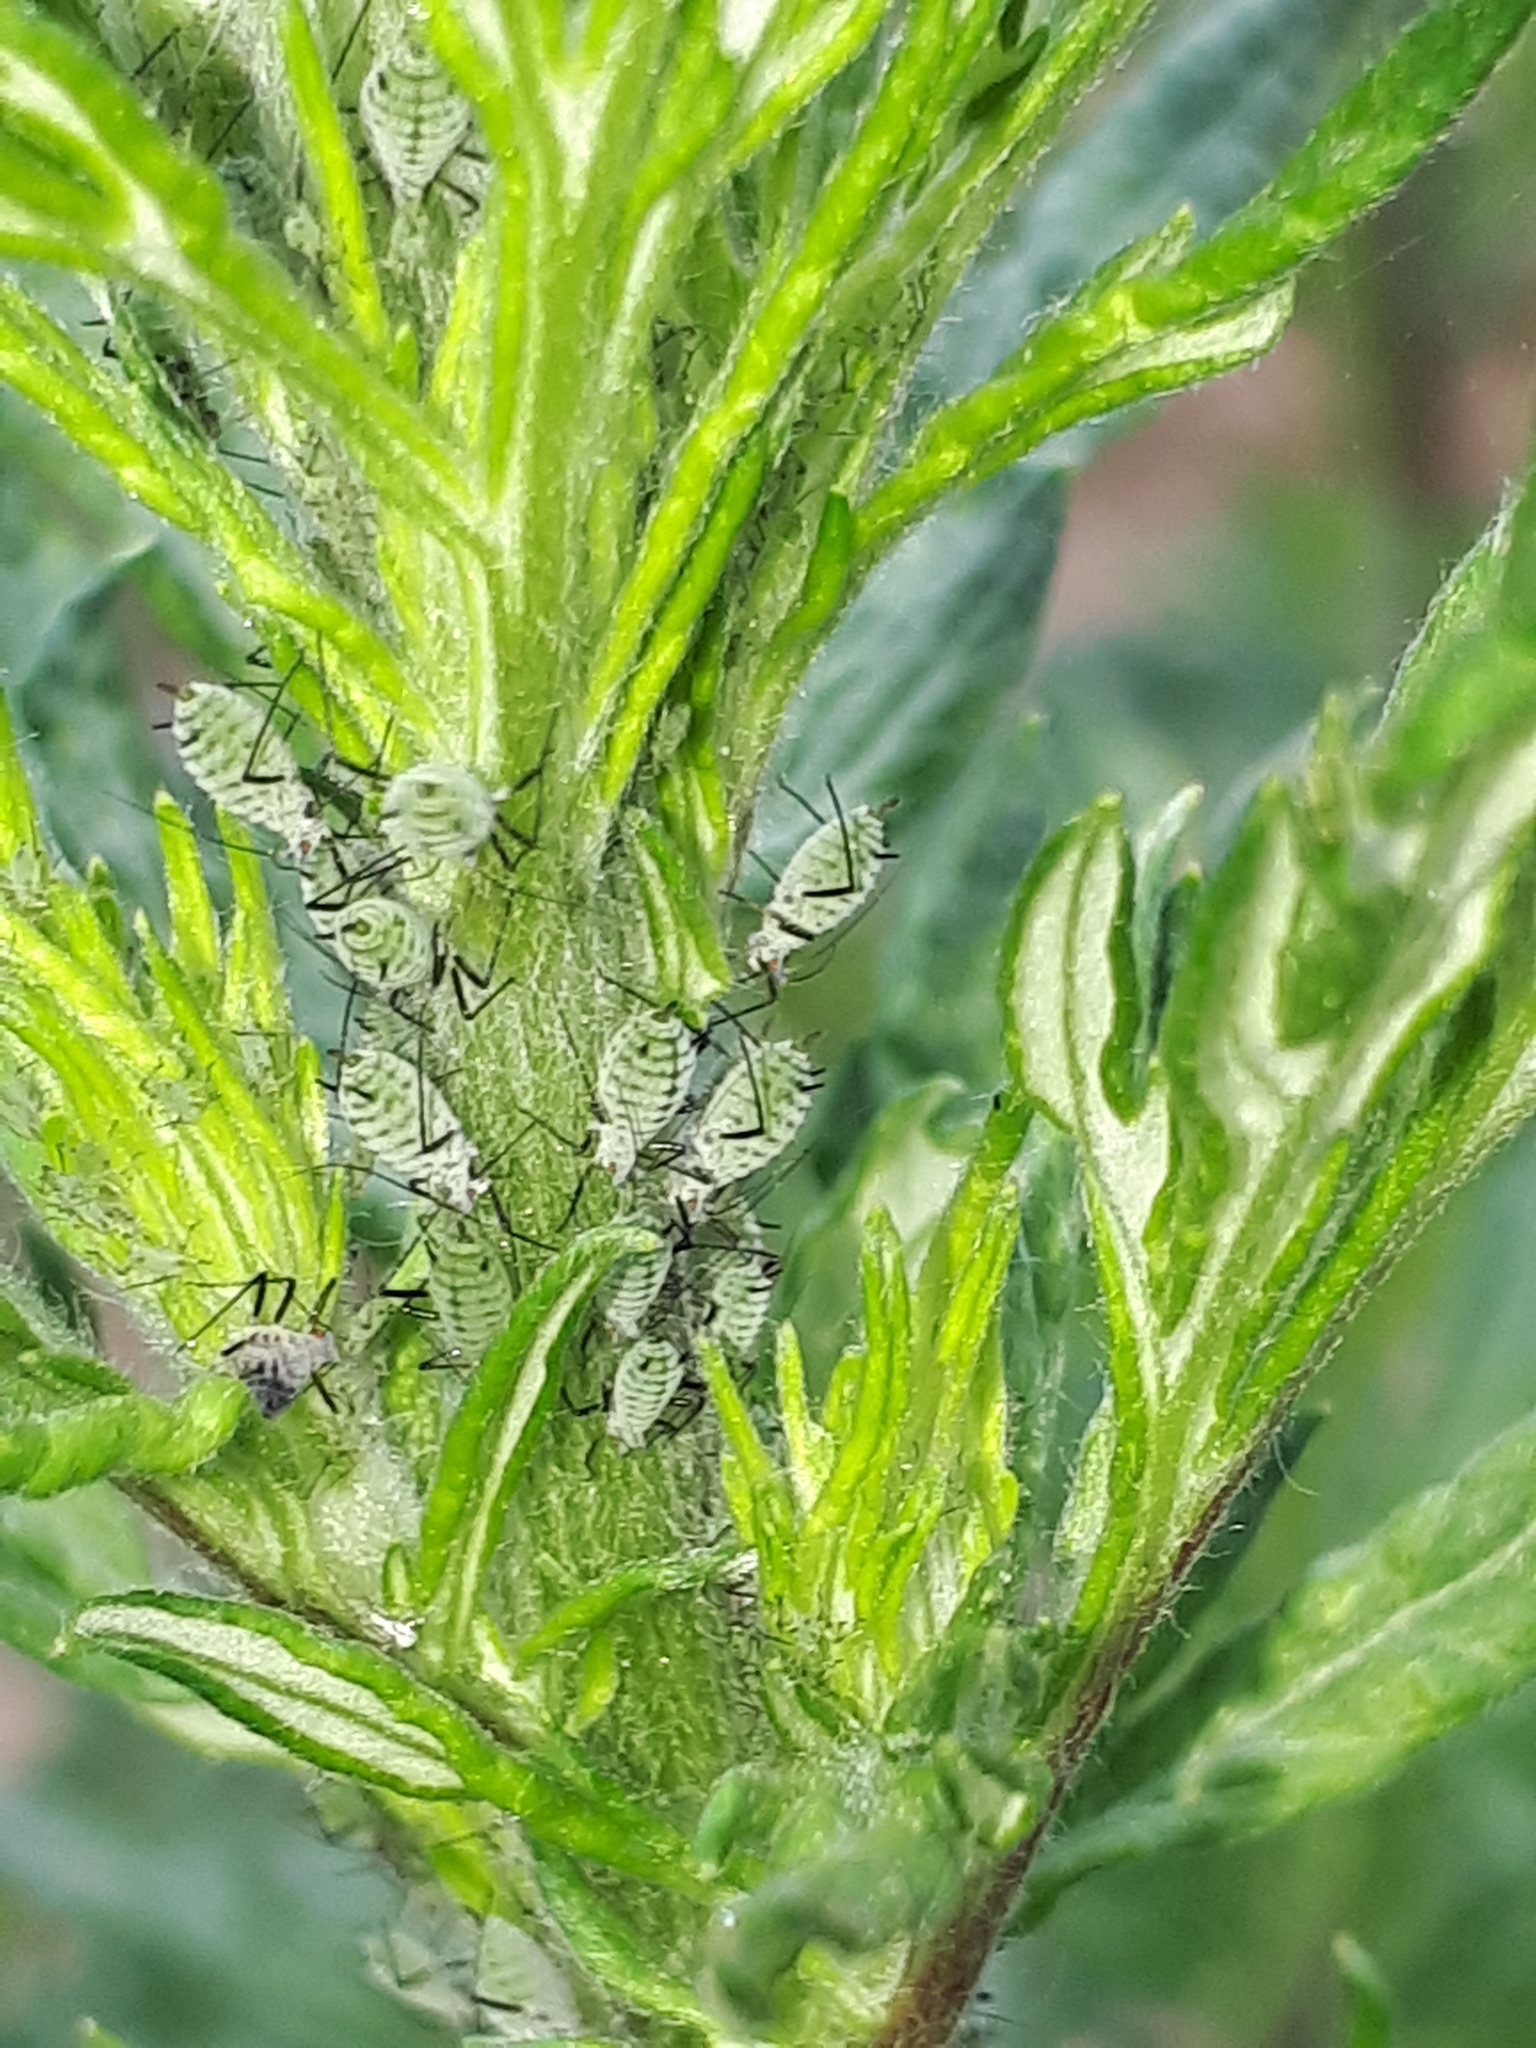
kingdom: Animalia
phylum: Arthropoda
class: Insecta
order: Hemiptera
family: Aphididae
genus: Macrosiphoniella
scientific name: Macrosiphoniella artemisiae
